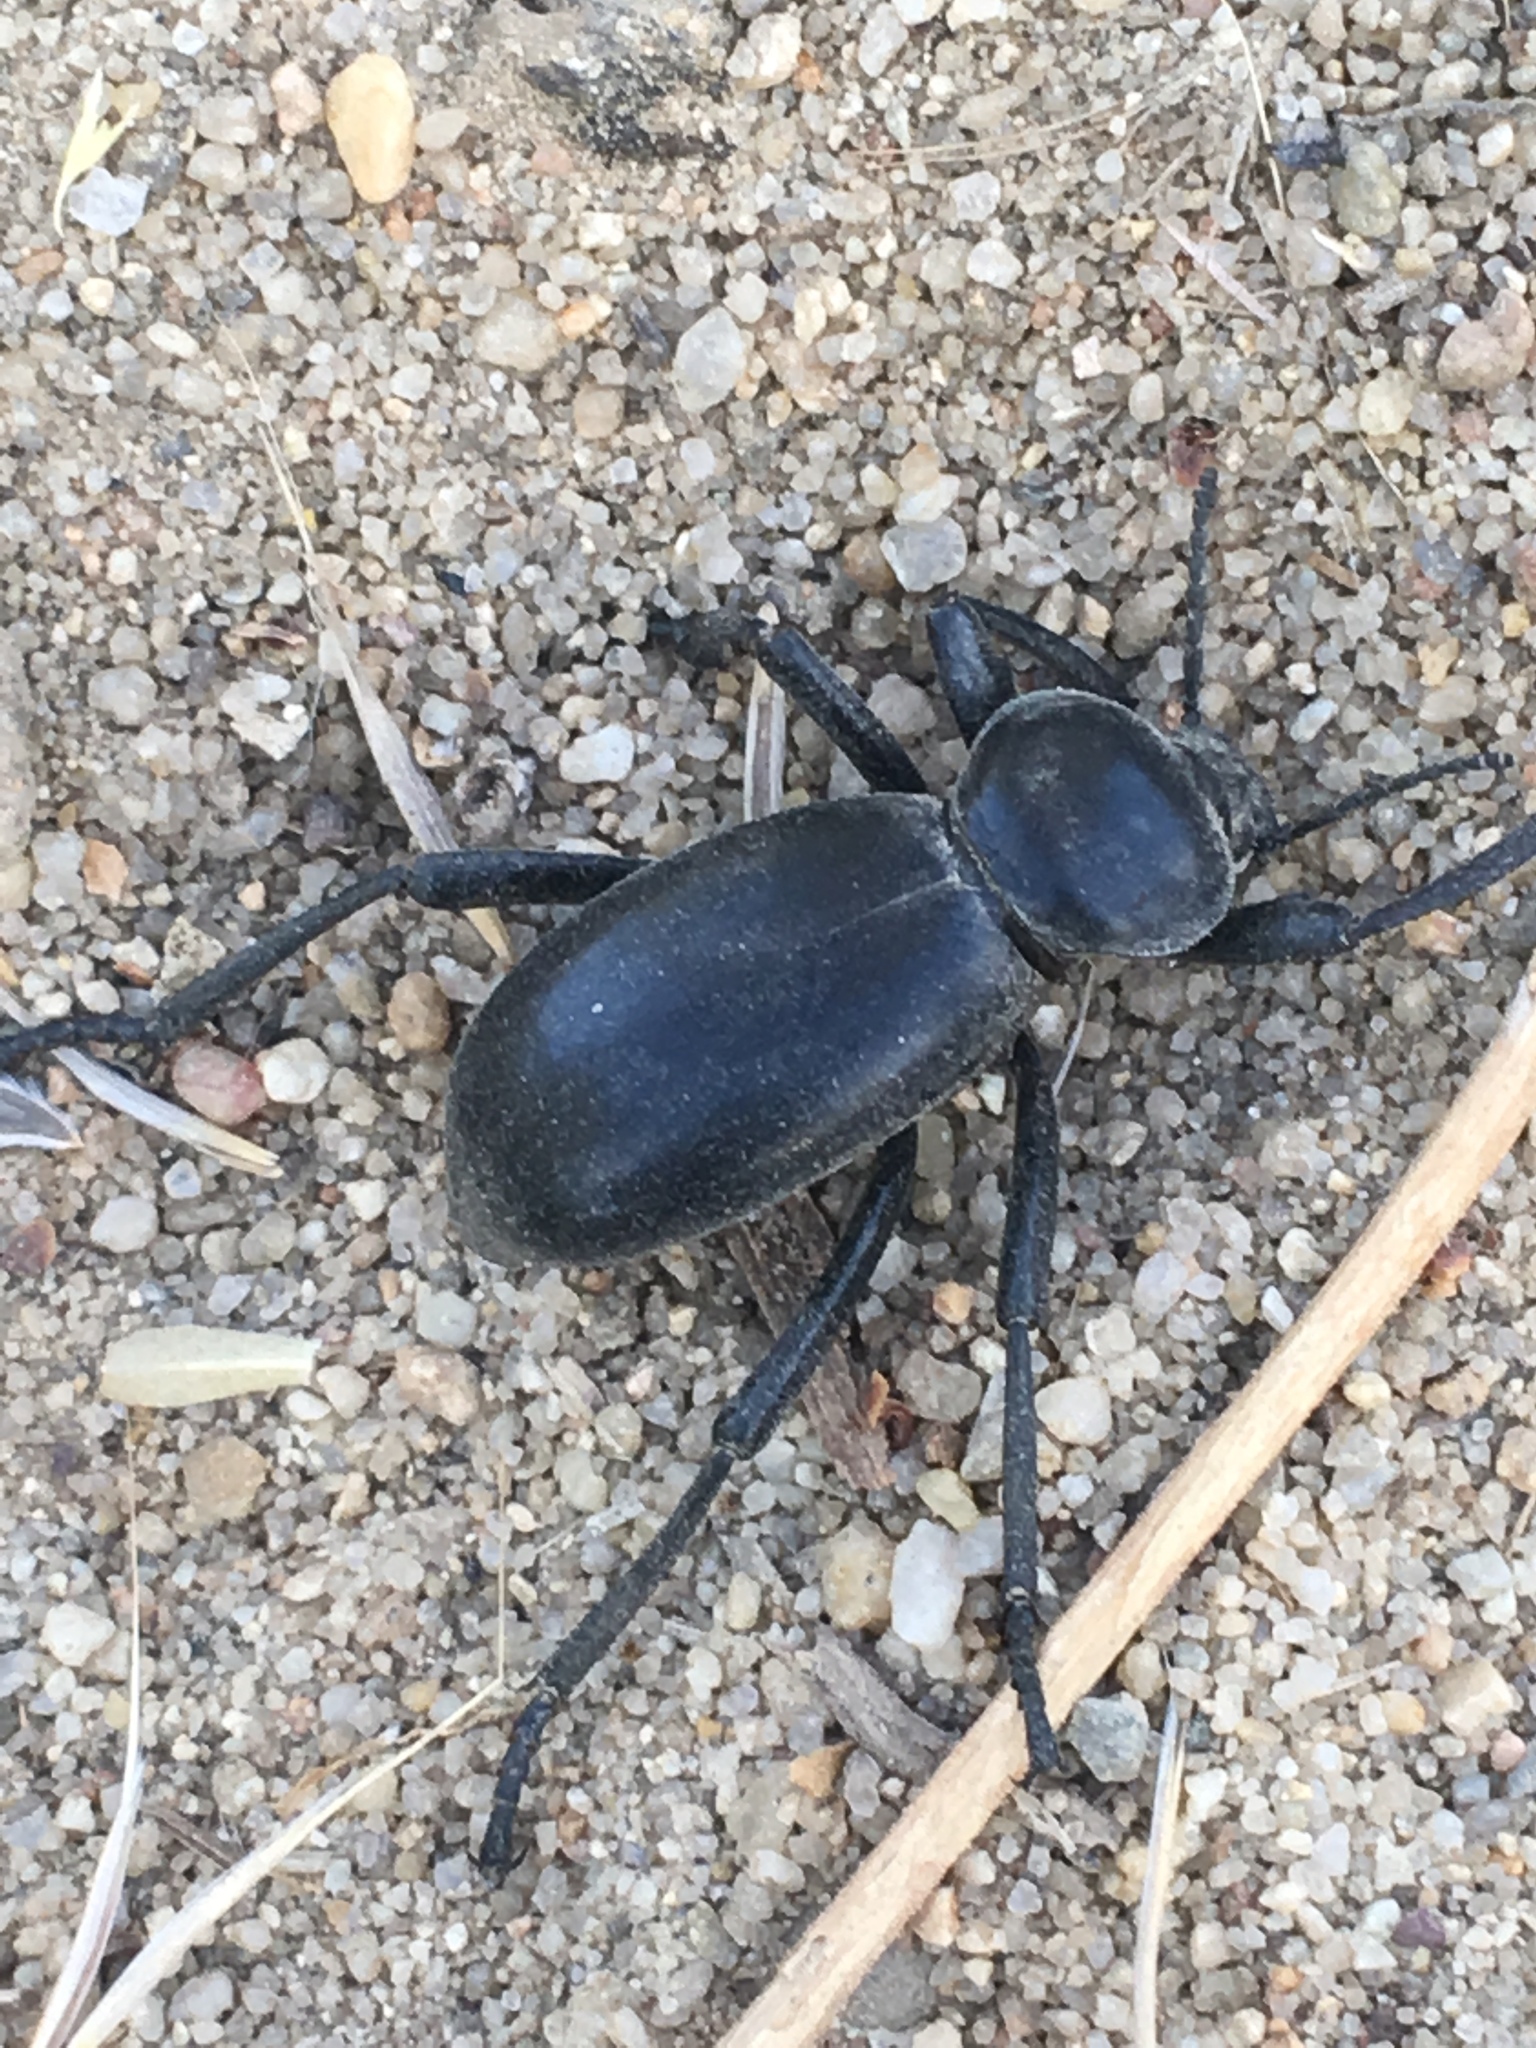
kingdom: Animalia
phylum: Arthropoda
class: Insecta
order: Coleoptera
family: Tenebrionidae
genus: Eleodes
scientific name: Eleodes grandicollis
